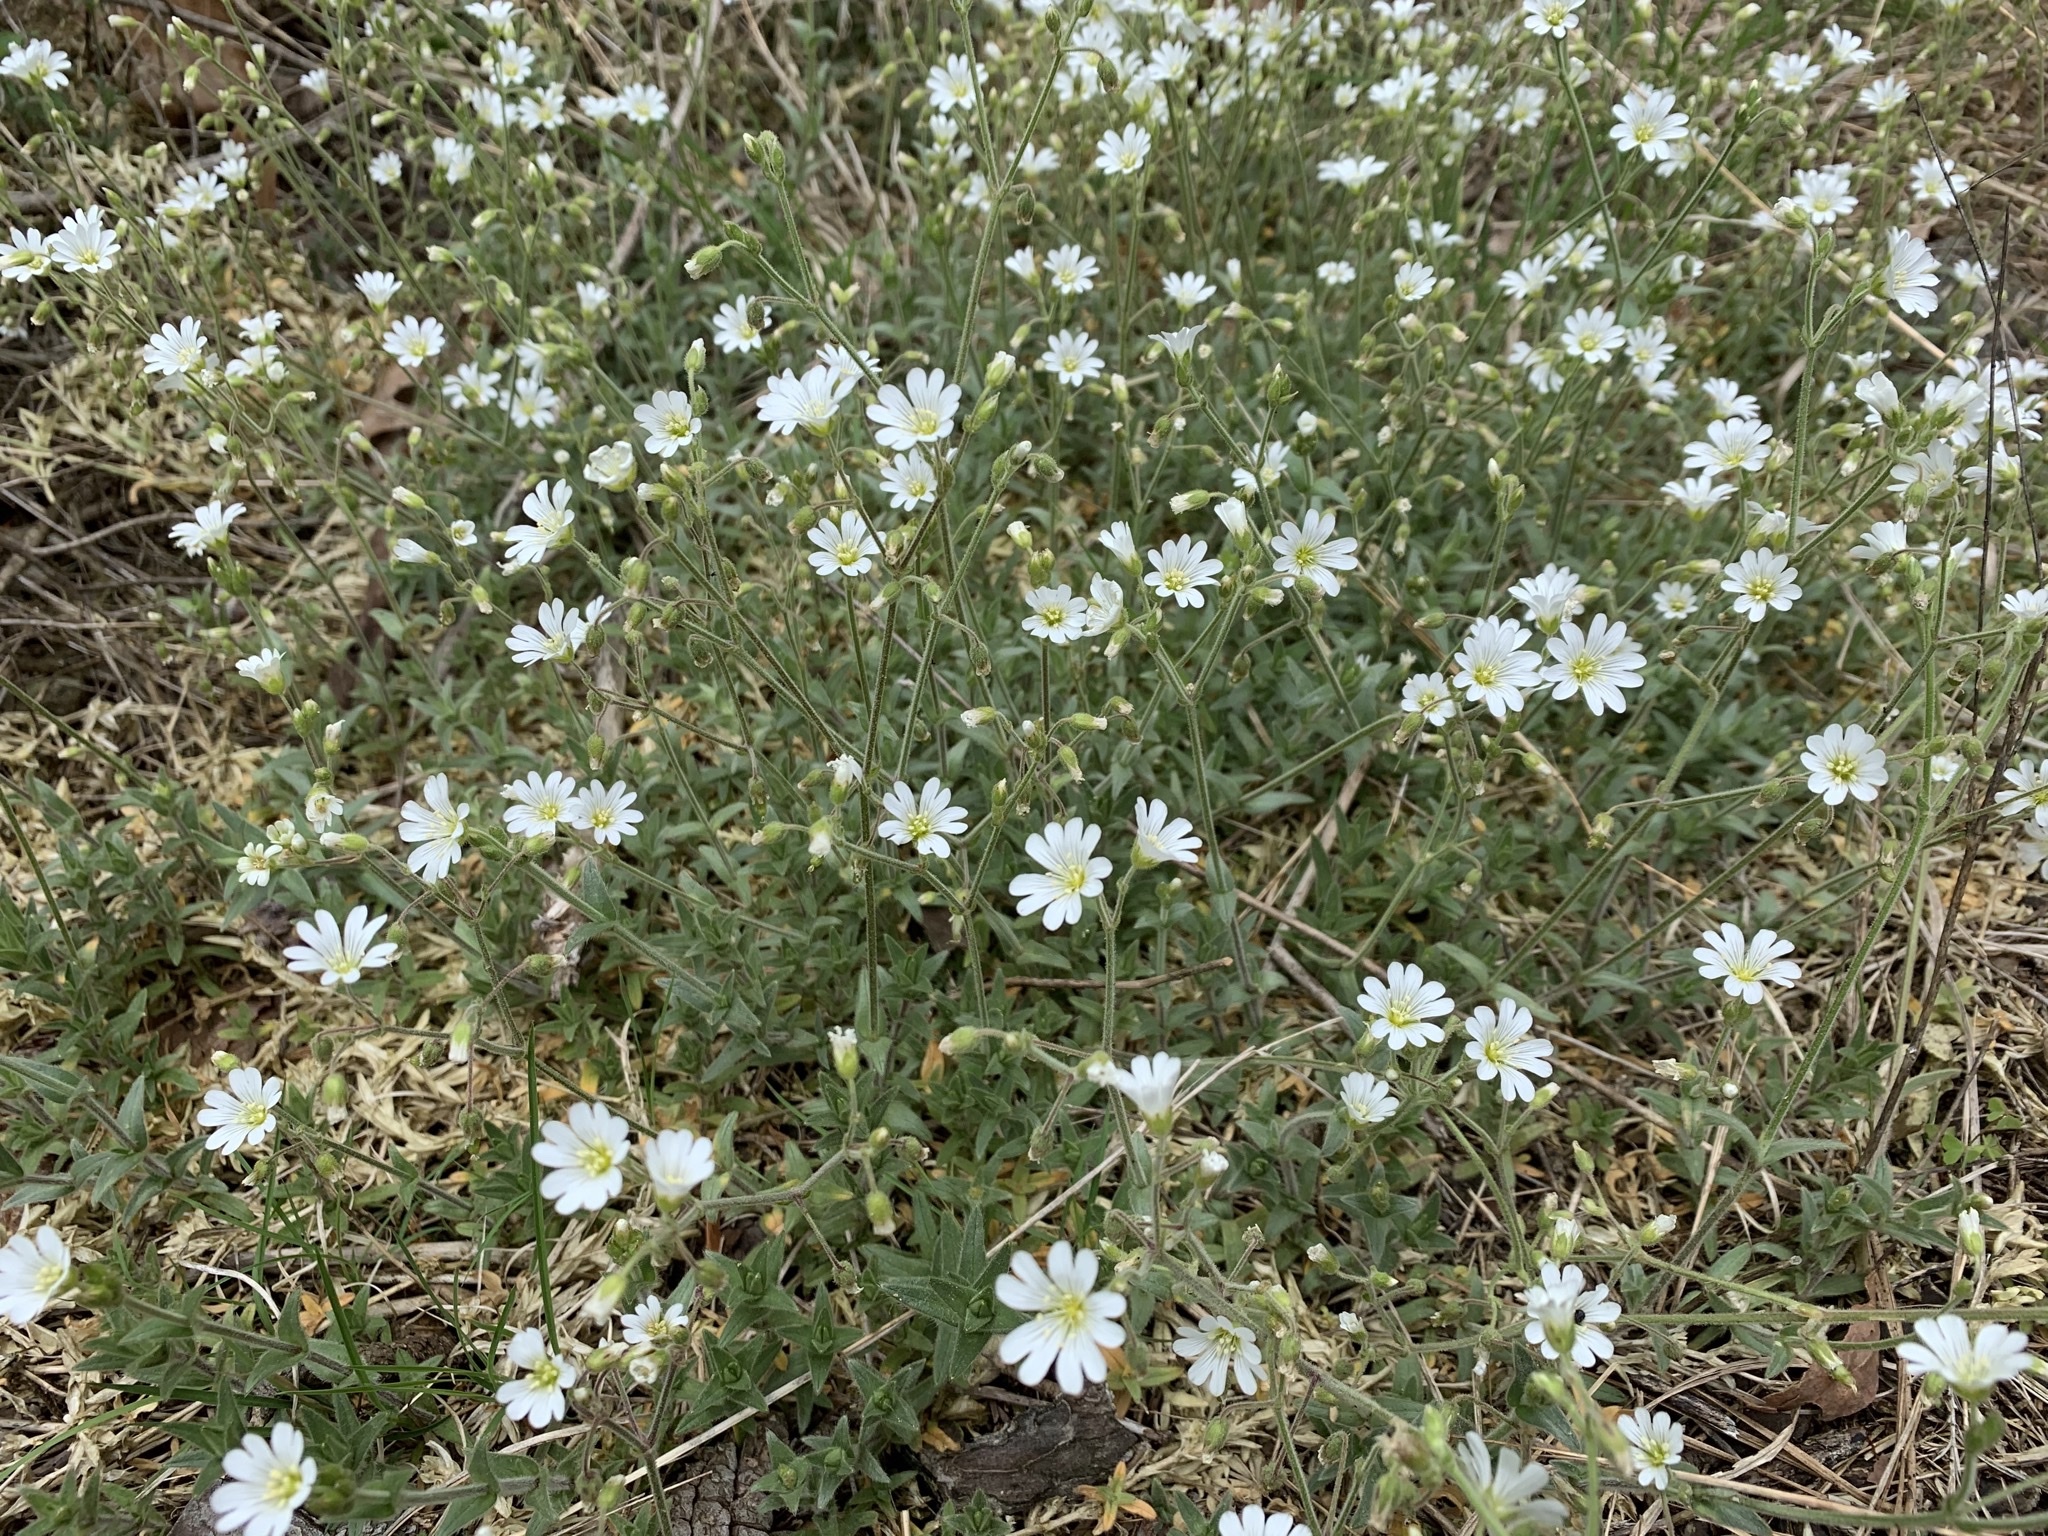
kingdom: Plantae
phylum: Tracheophyta
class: Magnoliopsida
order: Caryophyllales
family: Caryophyllaceae
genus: Cerastium
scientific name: Cerastium velutinum
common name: Barren chickweed
